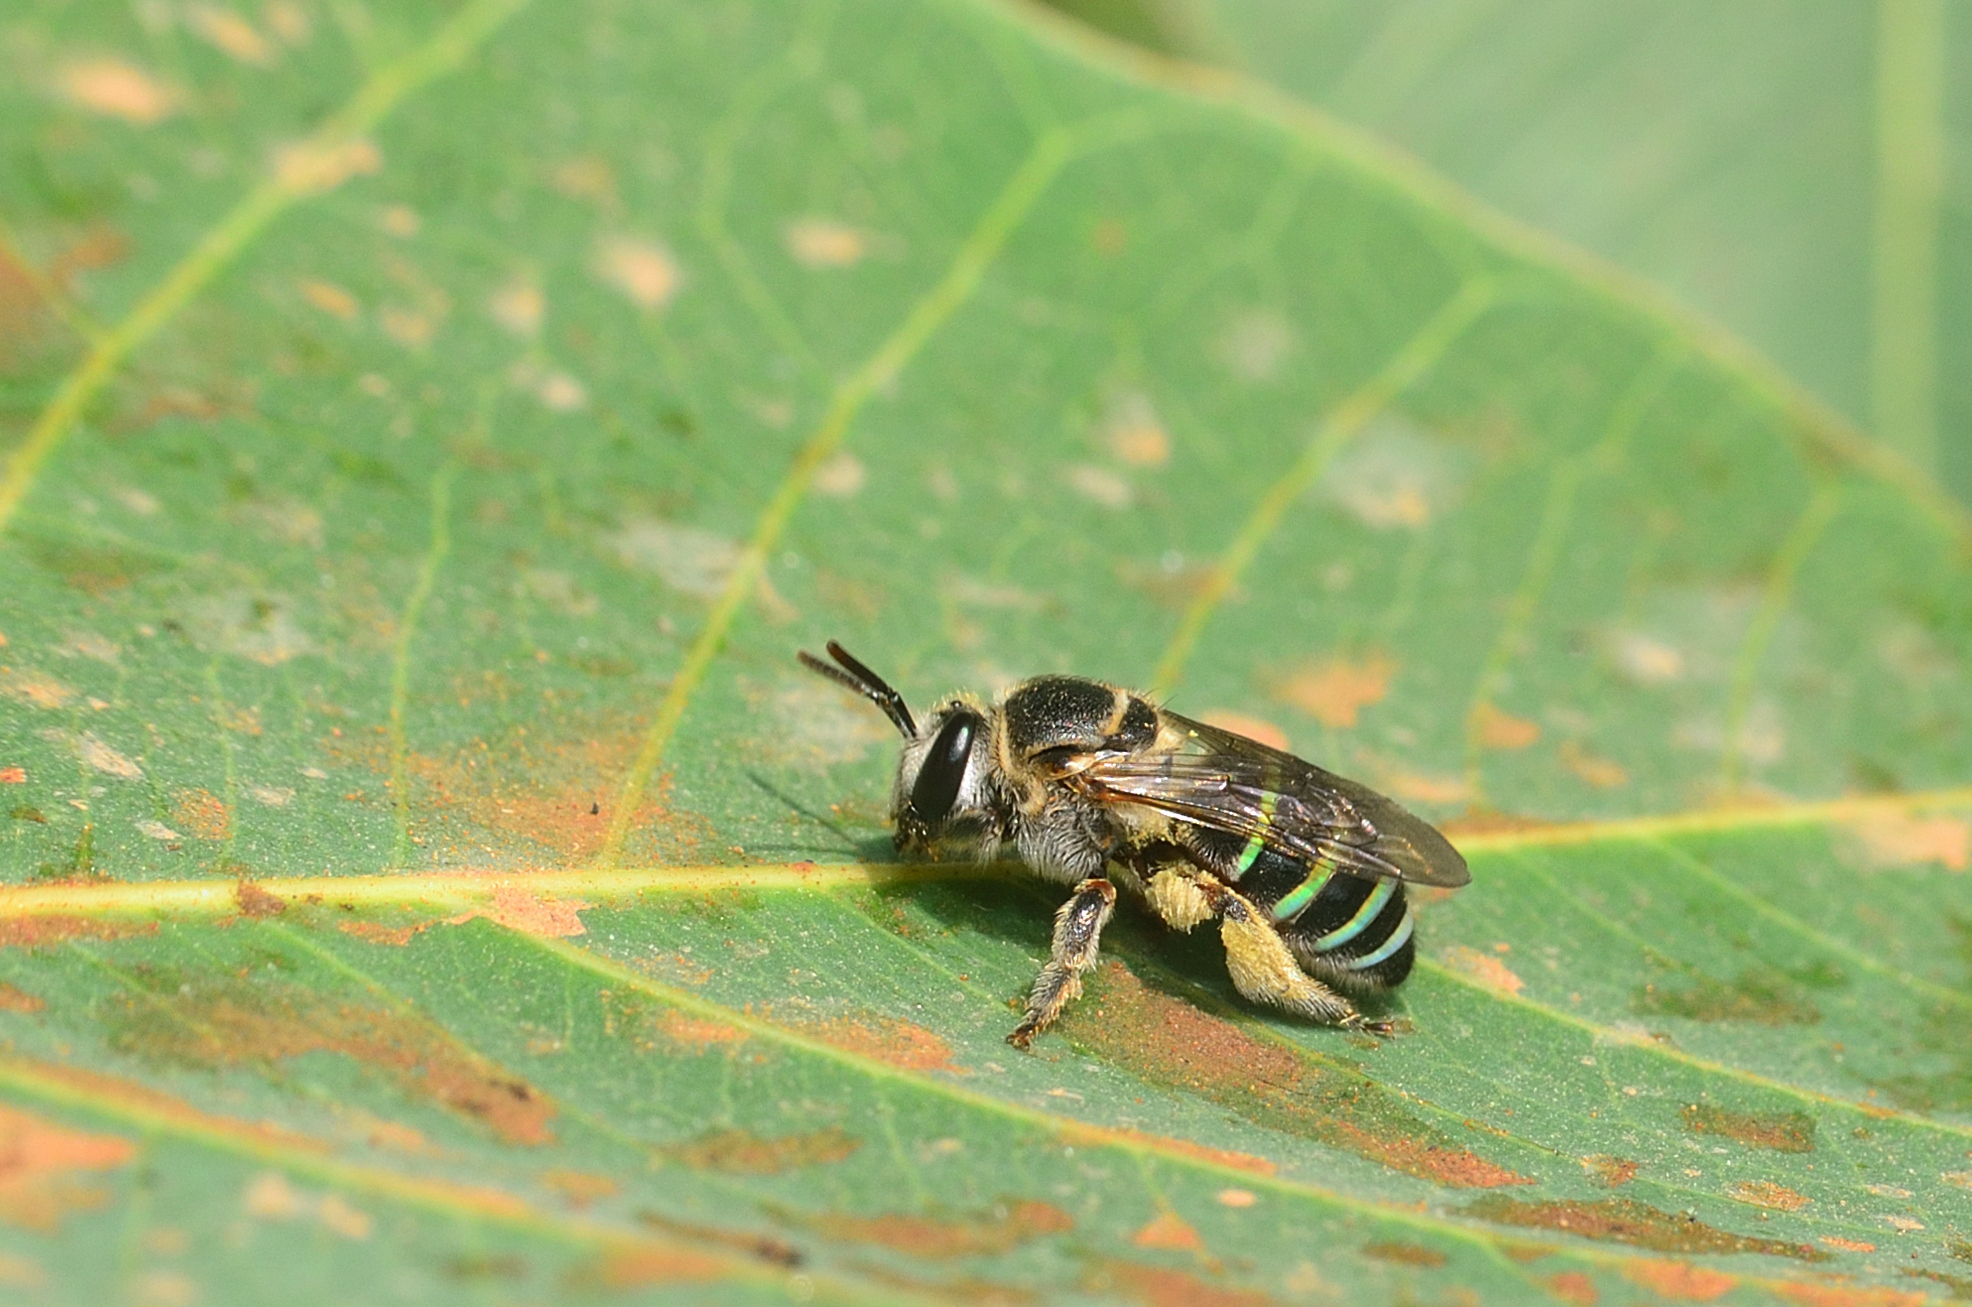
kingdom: Animalia
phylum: Arthropoda
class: Insecta
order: Hymenoptera
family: Halictidae
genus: Nomia
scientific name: Nomia westwoodi
